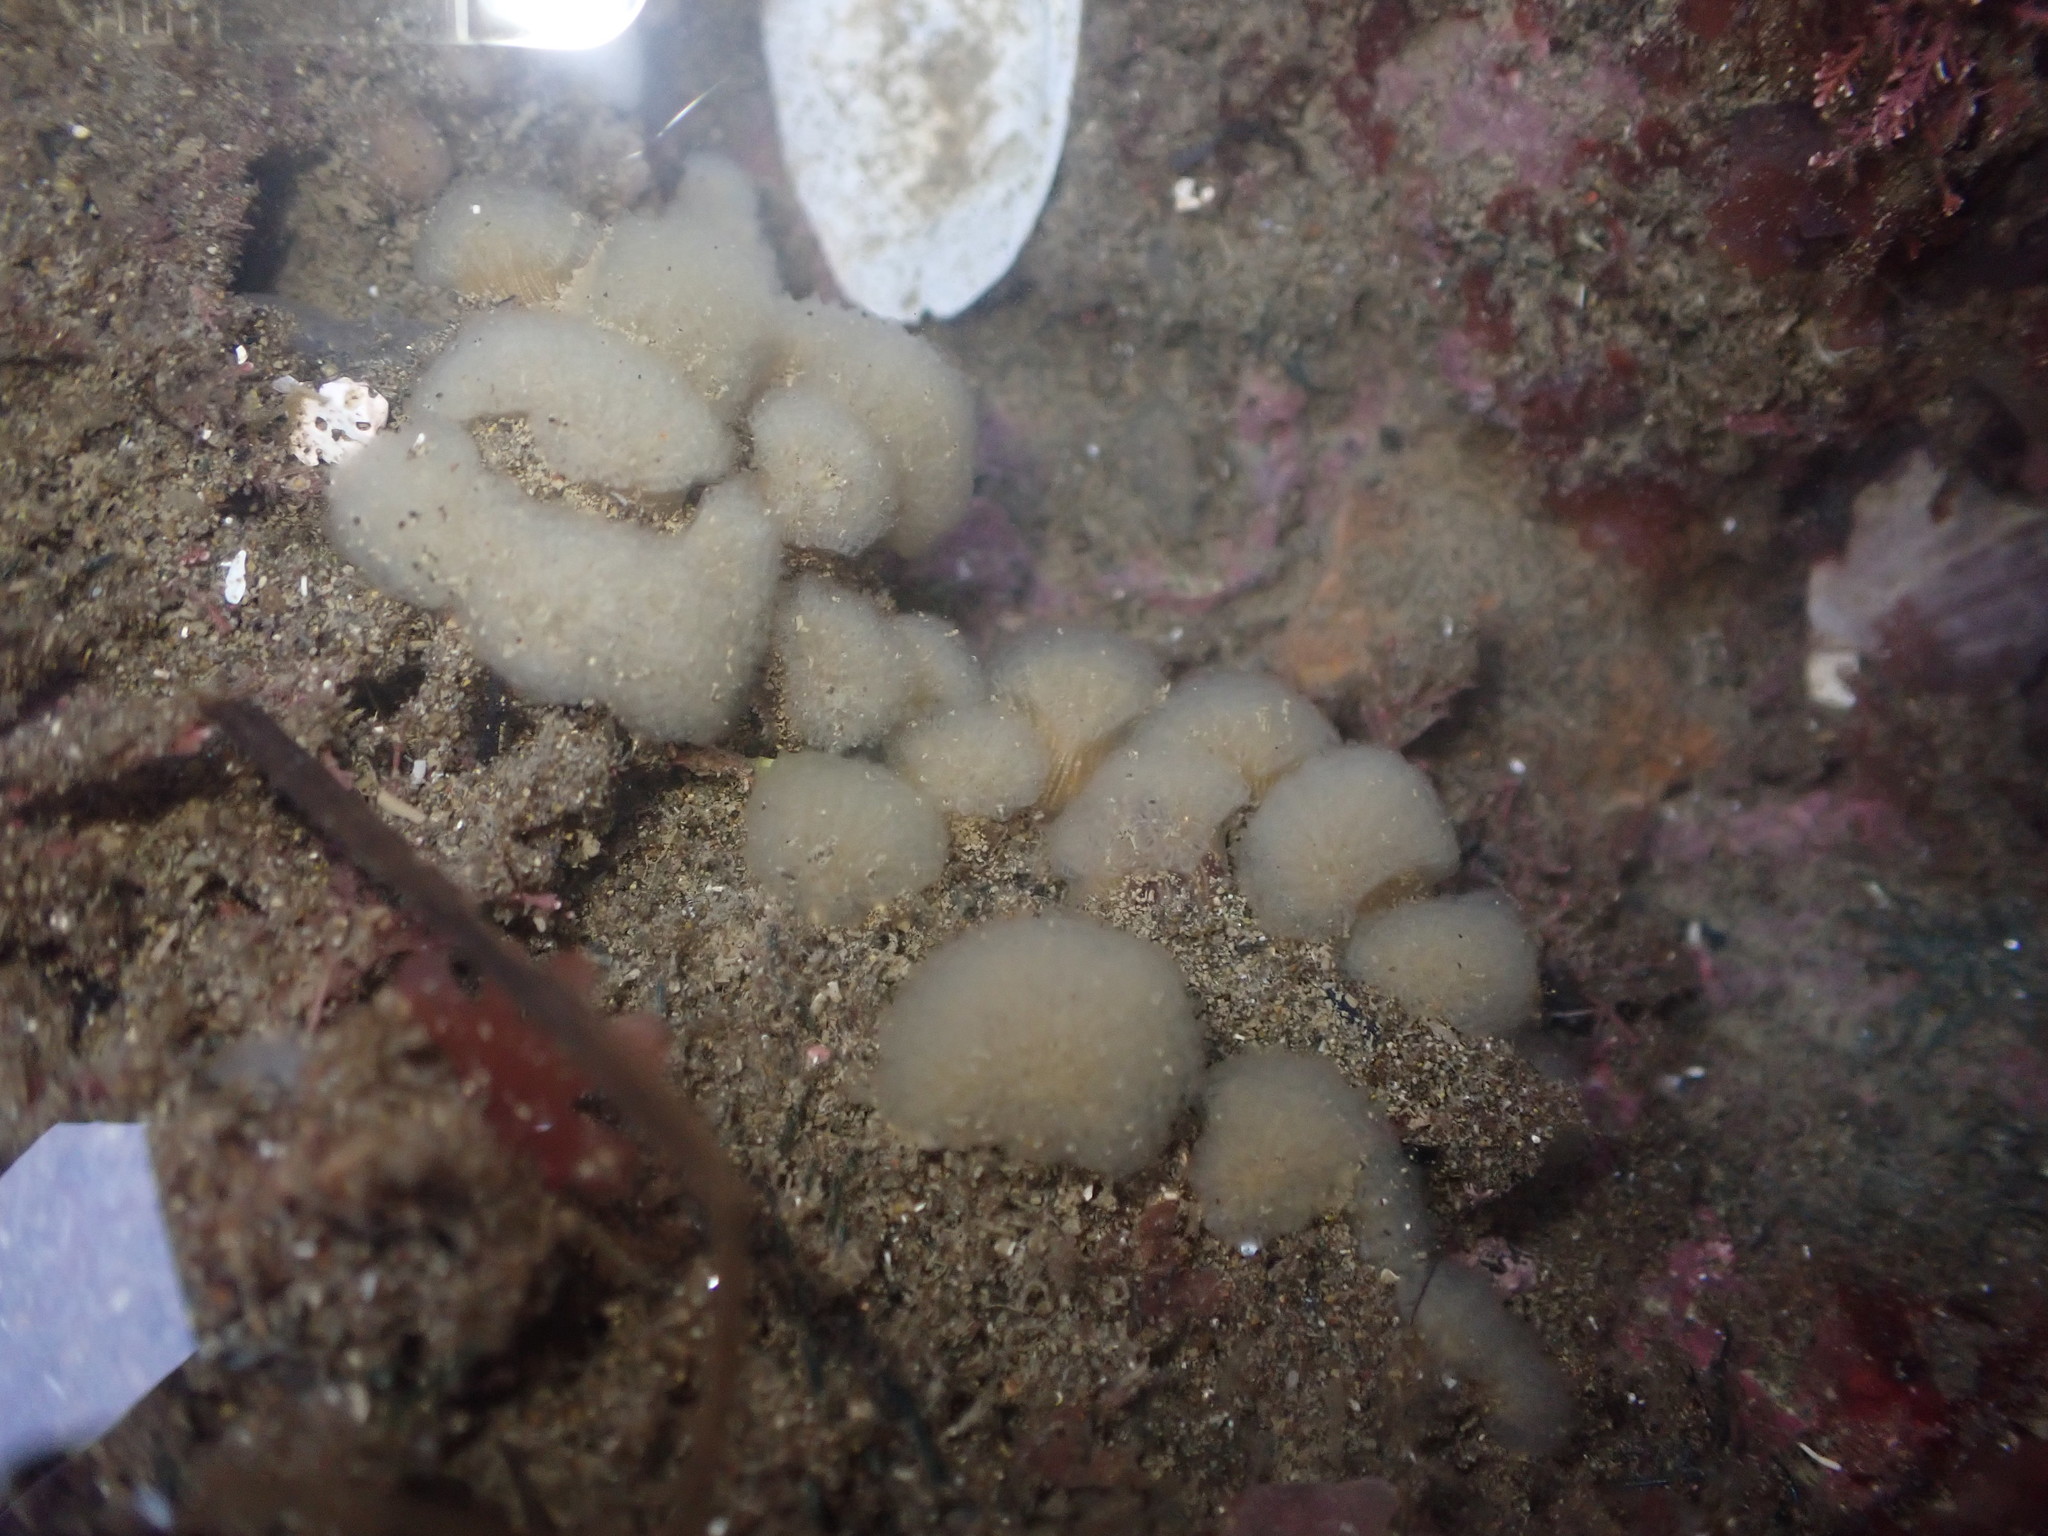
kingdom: Animalia
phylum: Chordata
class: Ascidiacea
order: Aplousobranchia
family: Pseudodistomidae
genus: Pseudodistoma
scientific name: Pseudodistoma opacum
